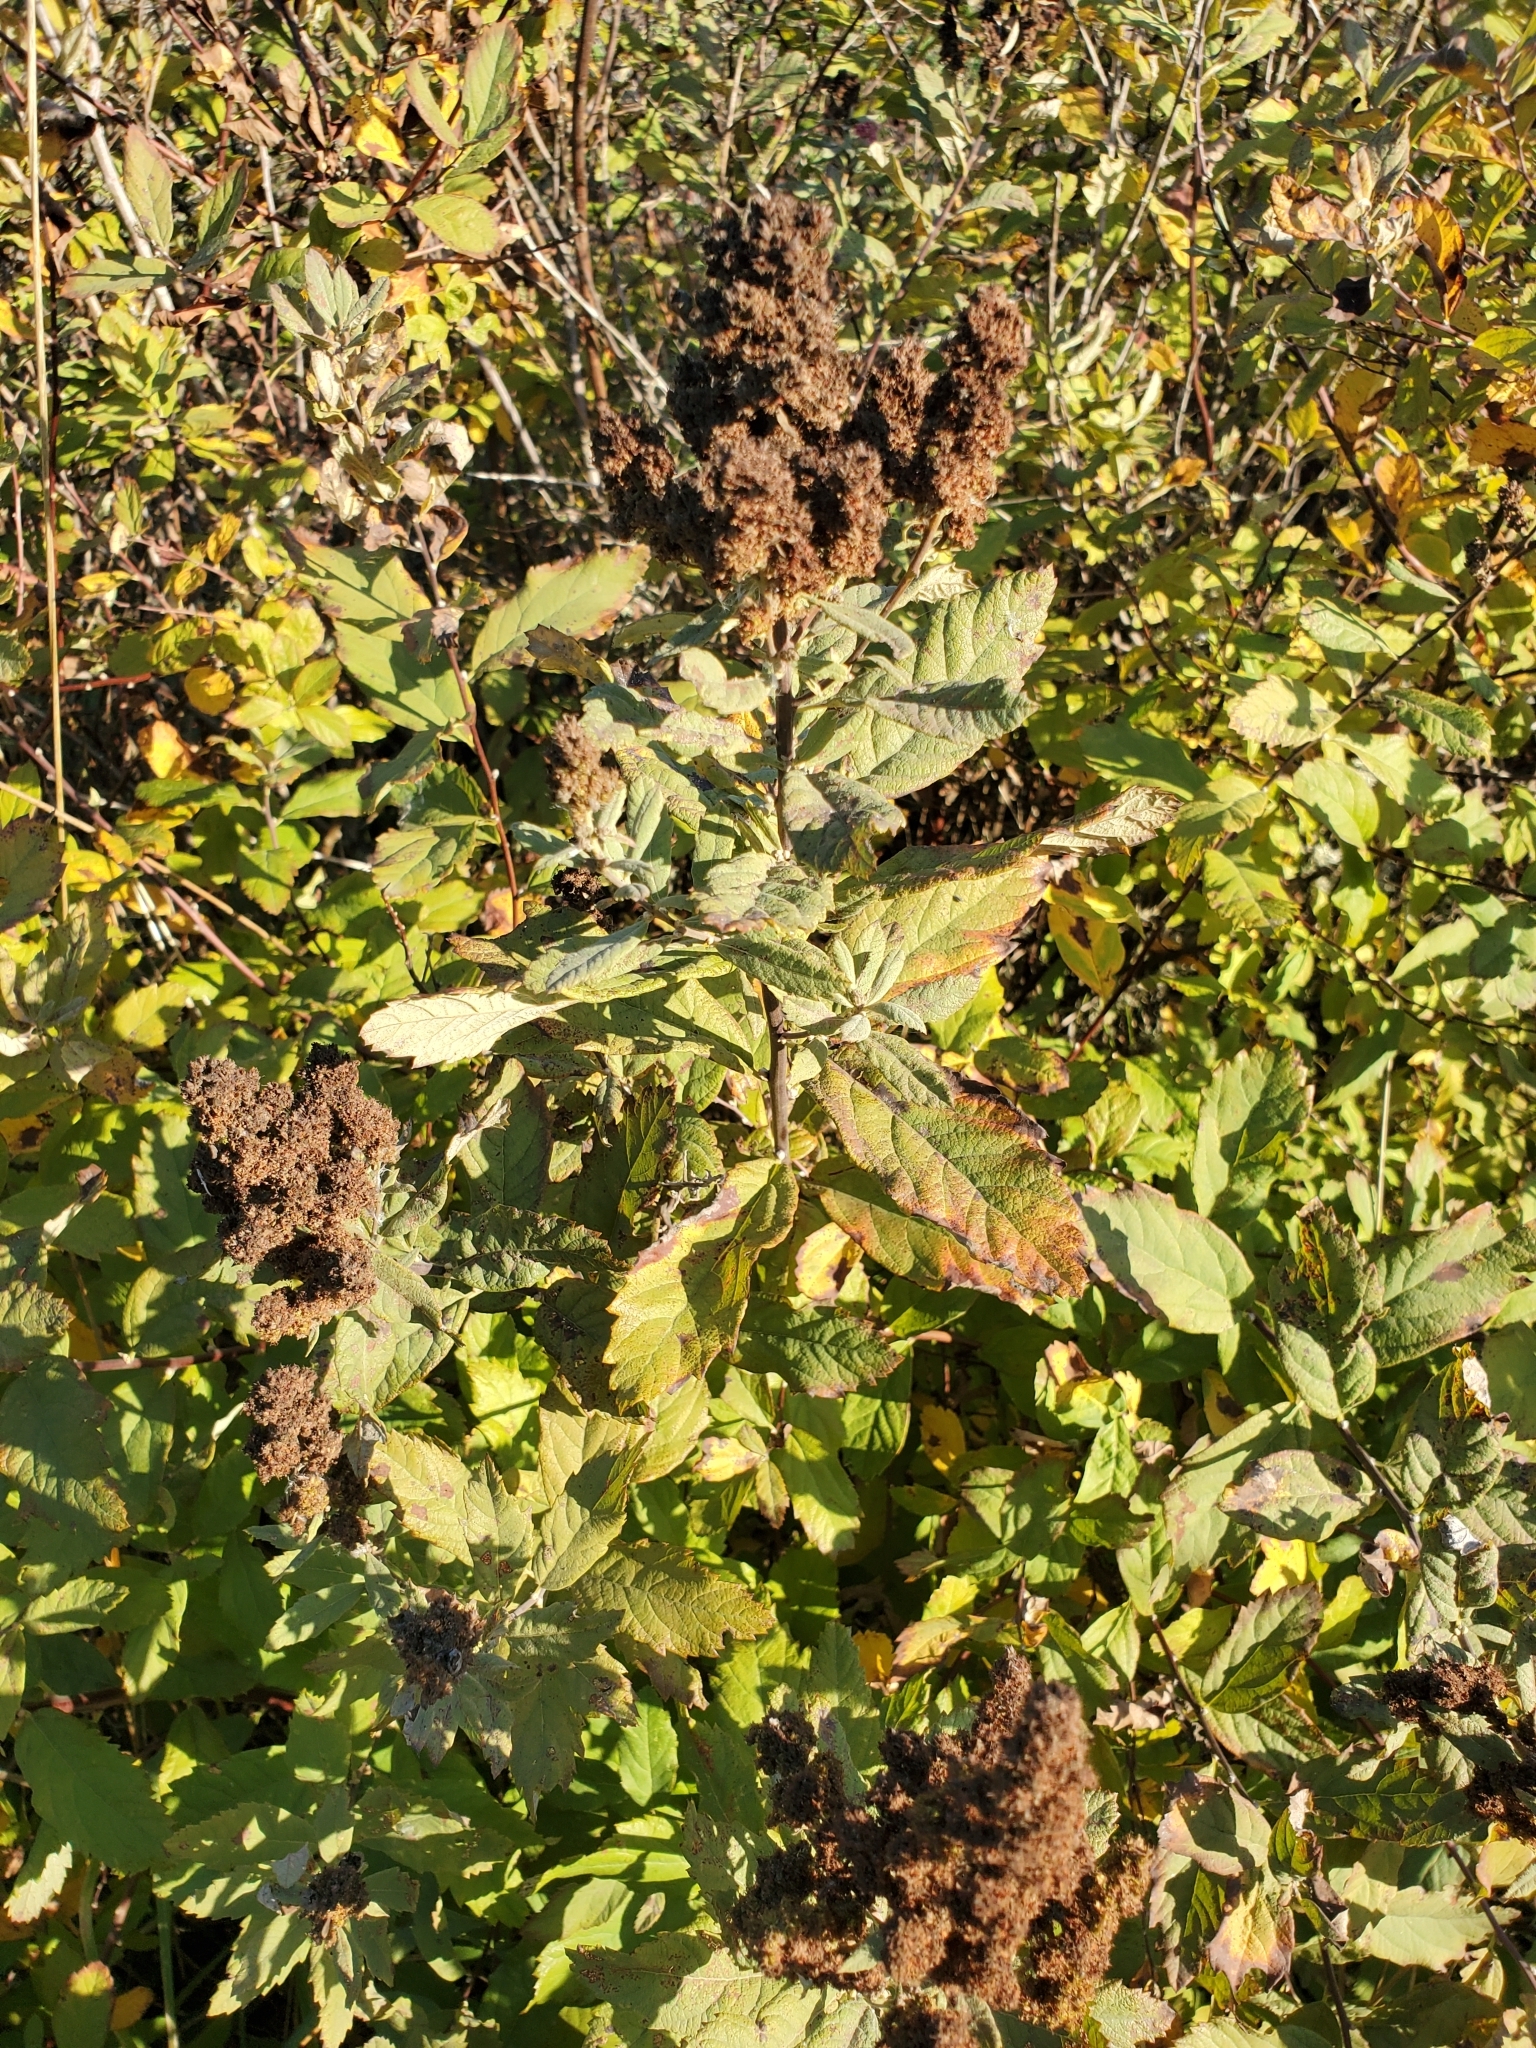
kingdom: Plantae
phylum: Tracheophyta
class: Magnoliopsida
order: Rosales
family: Rosaceae
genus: Spiraea
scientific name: Spiraea douglasii
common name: Steeplebush
